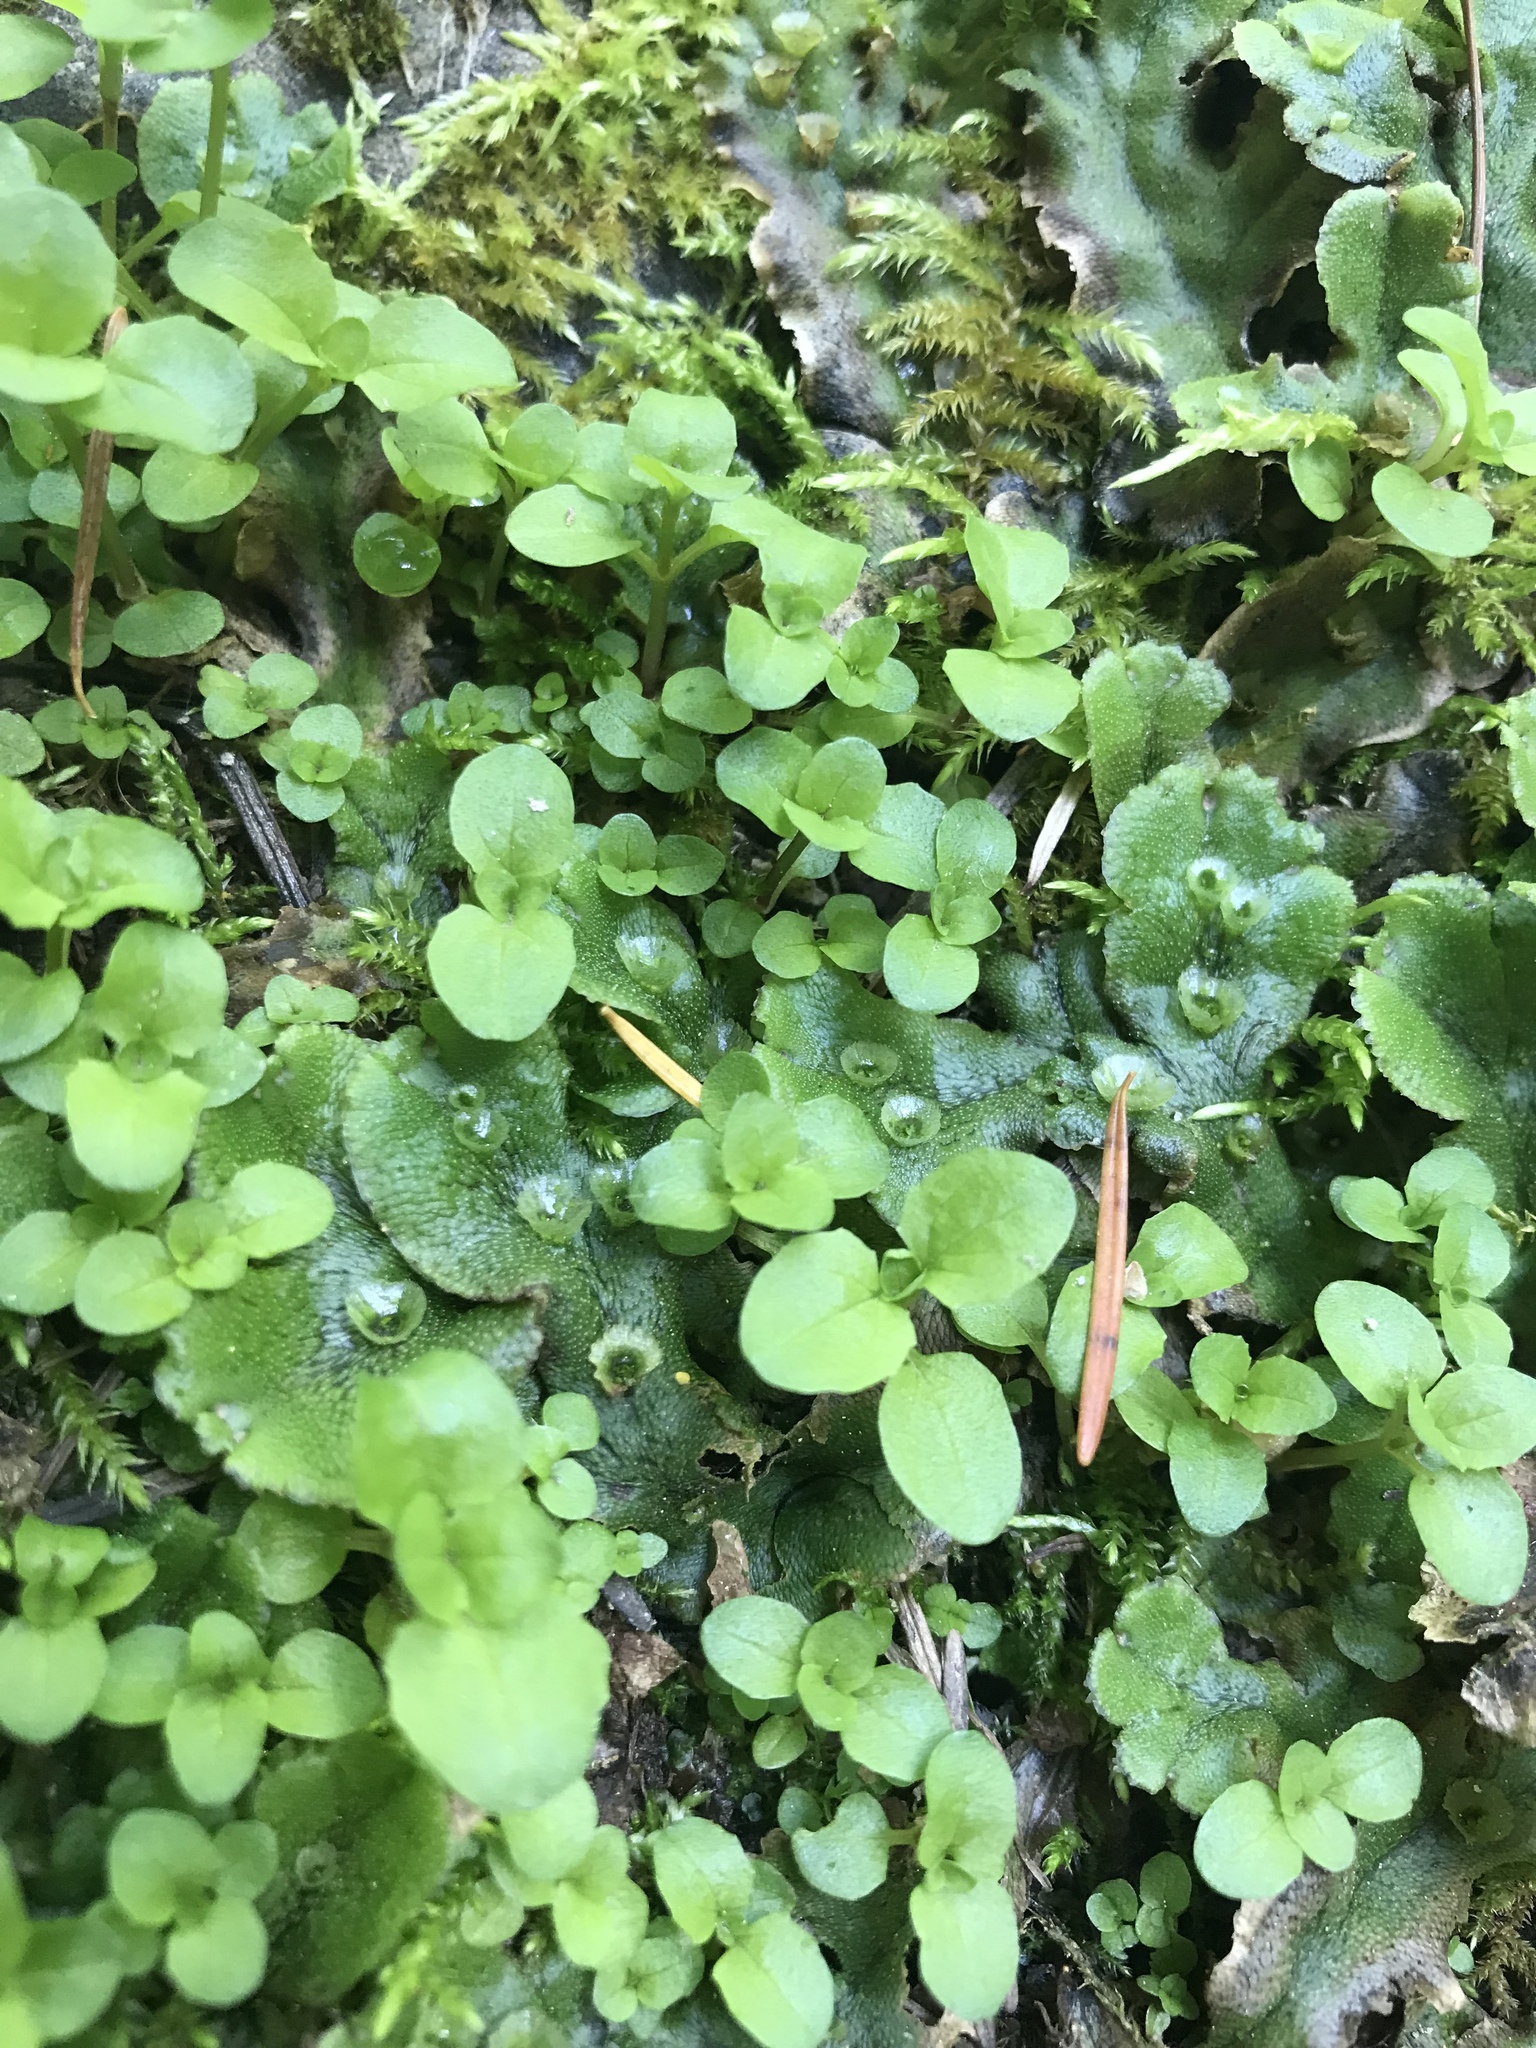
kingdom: Plantae
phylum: Marchantiophyta
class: Marchantiopsida
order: Marchantiales
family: Marchantiaceae
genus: Marchantia
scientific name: Marchantia polymorpha
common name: Common liverwort
